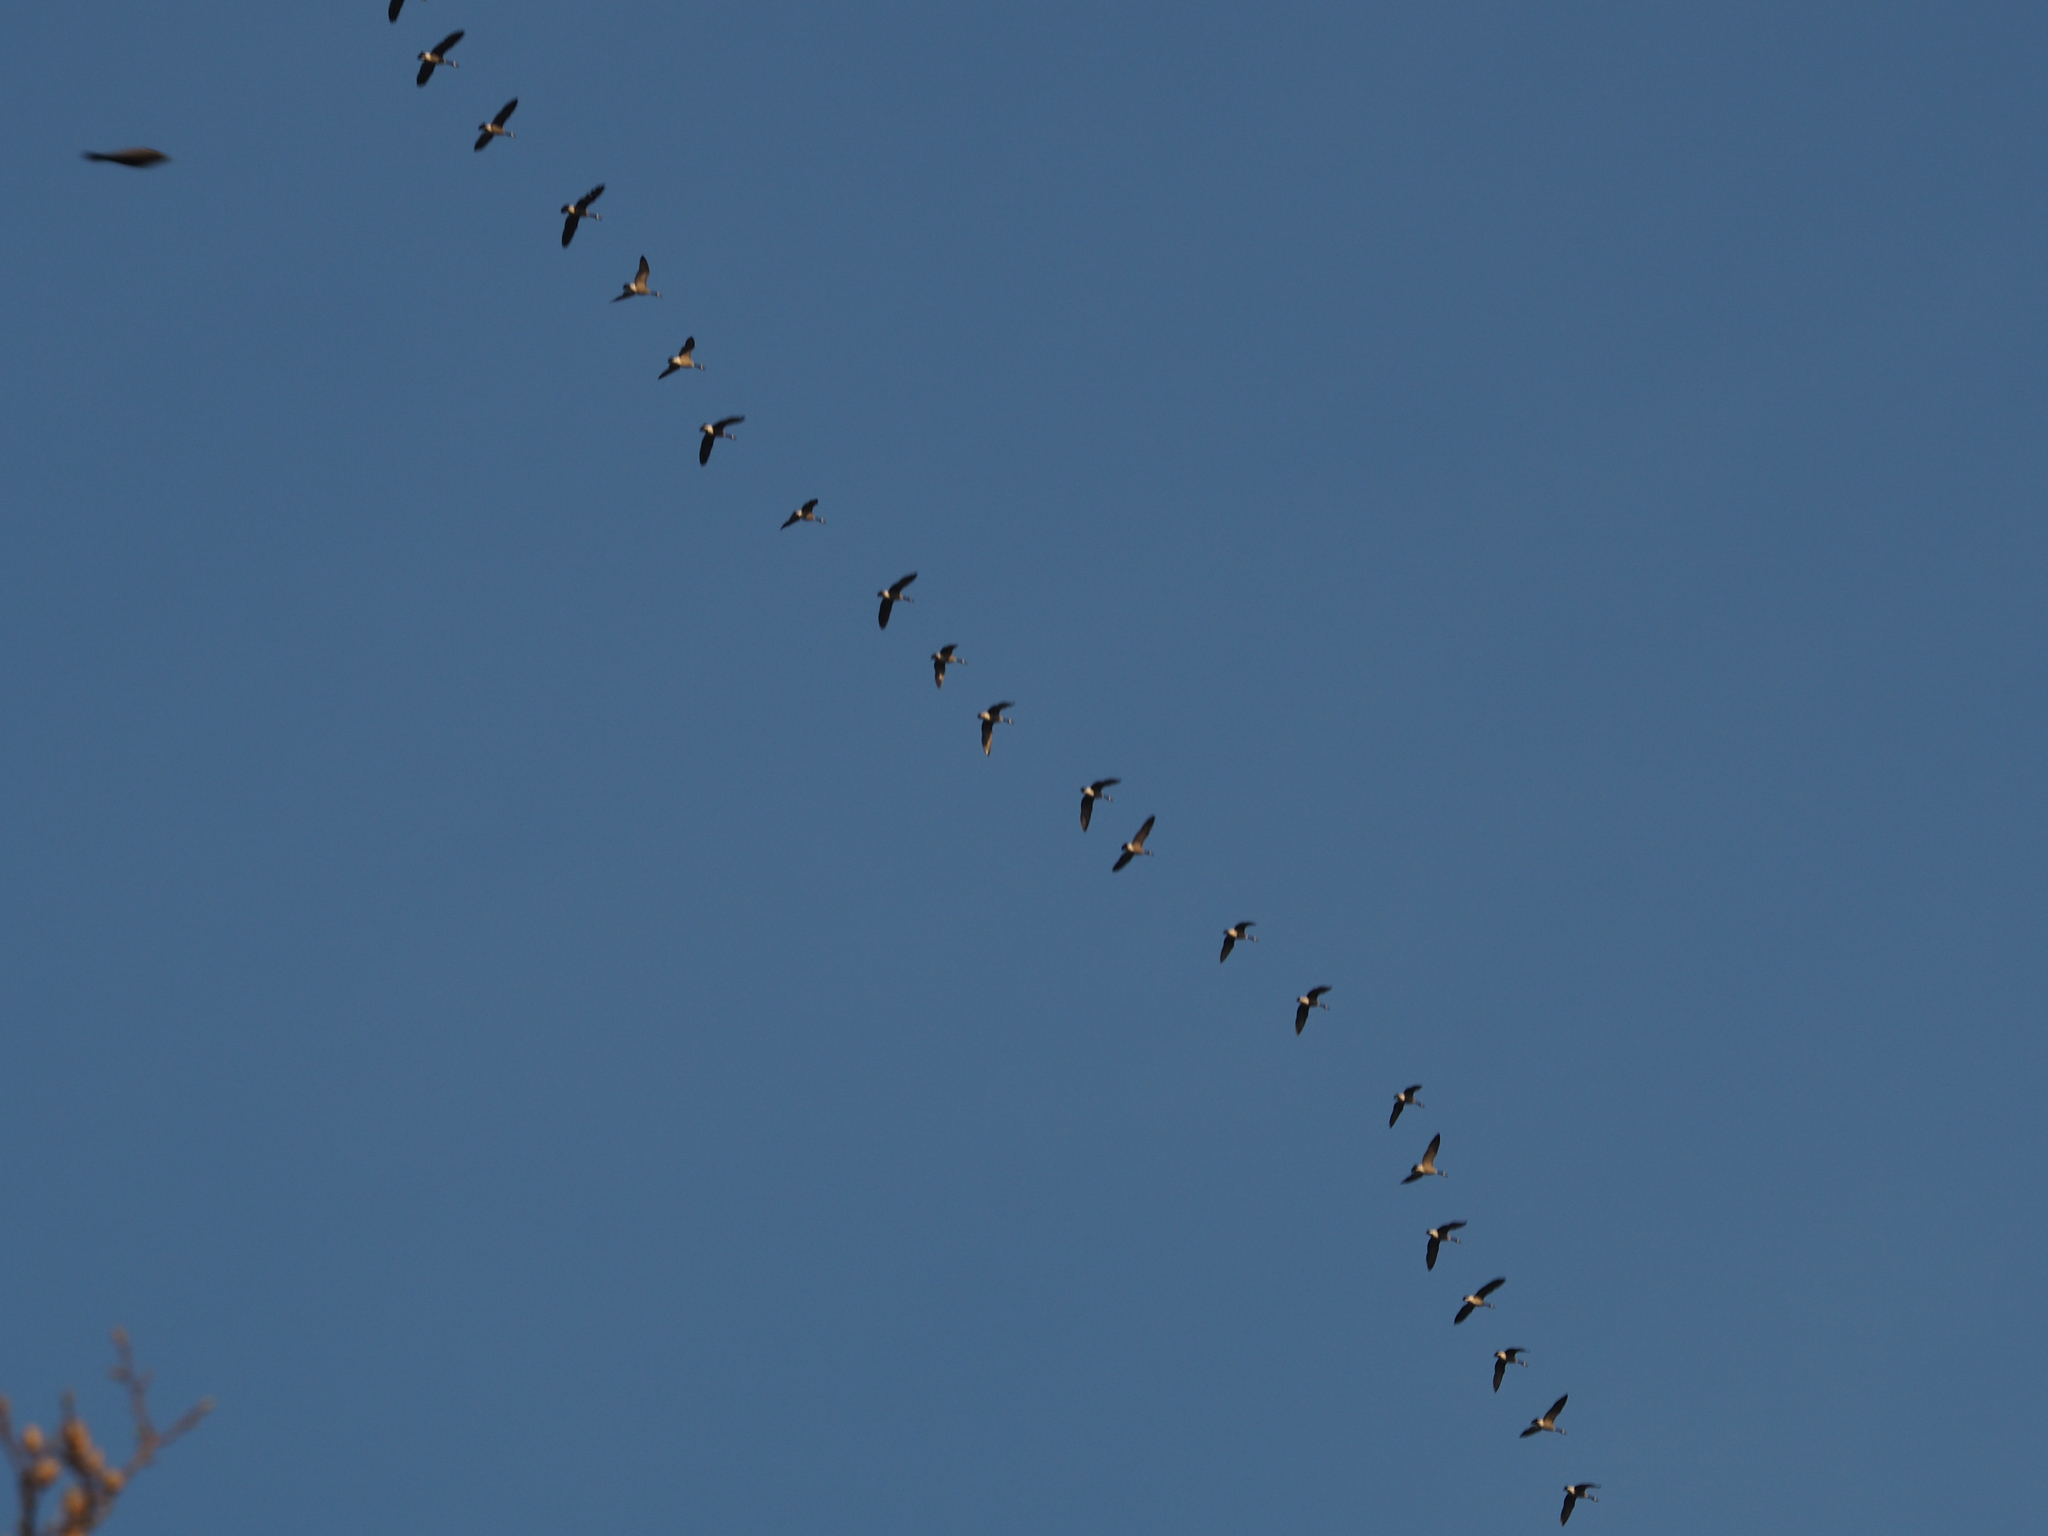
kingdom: Animalia
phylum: Chordata
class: Aves
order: Anseriformes
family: Anatidae
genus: Branta
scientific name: Branta canadensis
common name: Canada goose
